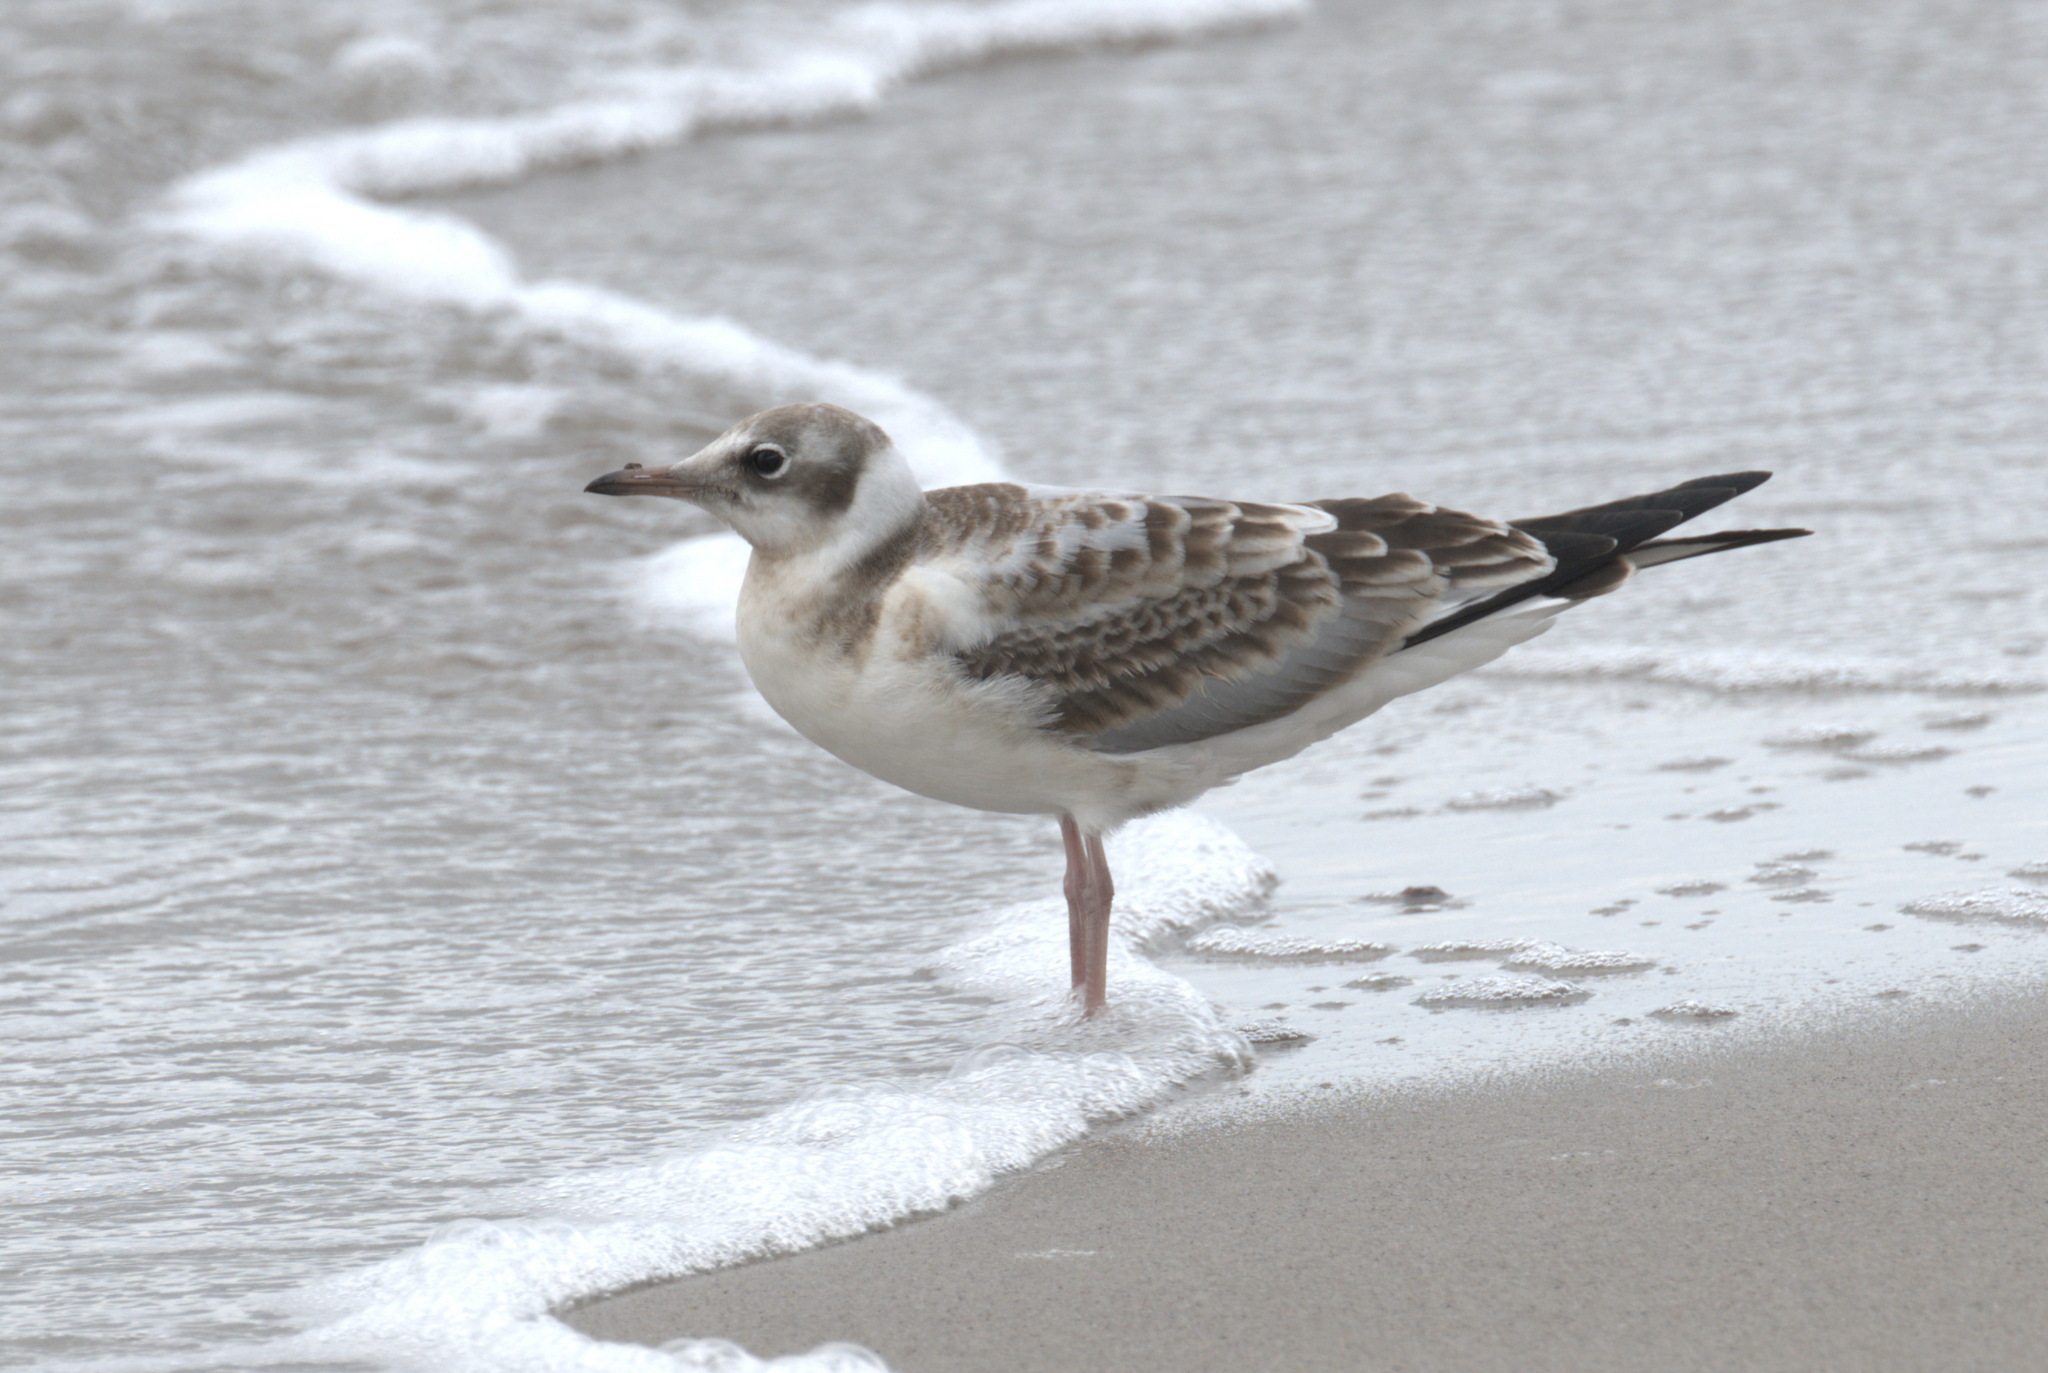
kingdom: Animalia
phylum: Chordata
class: Aves
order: Charadriiformes
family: Laridae
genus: Chroicocephalus
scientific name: Chroicocephalus ridibundus
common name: Black-headed gull
